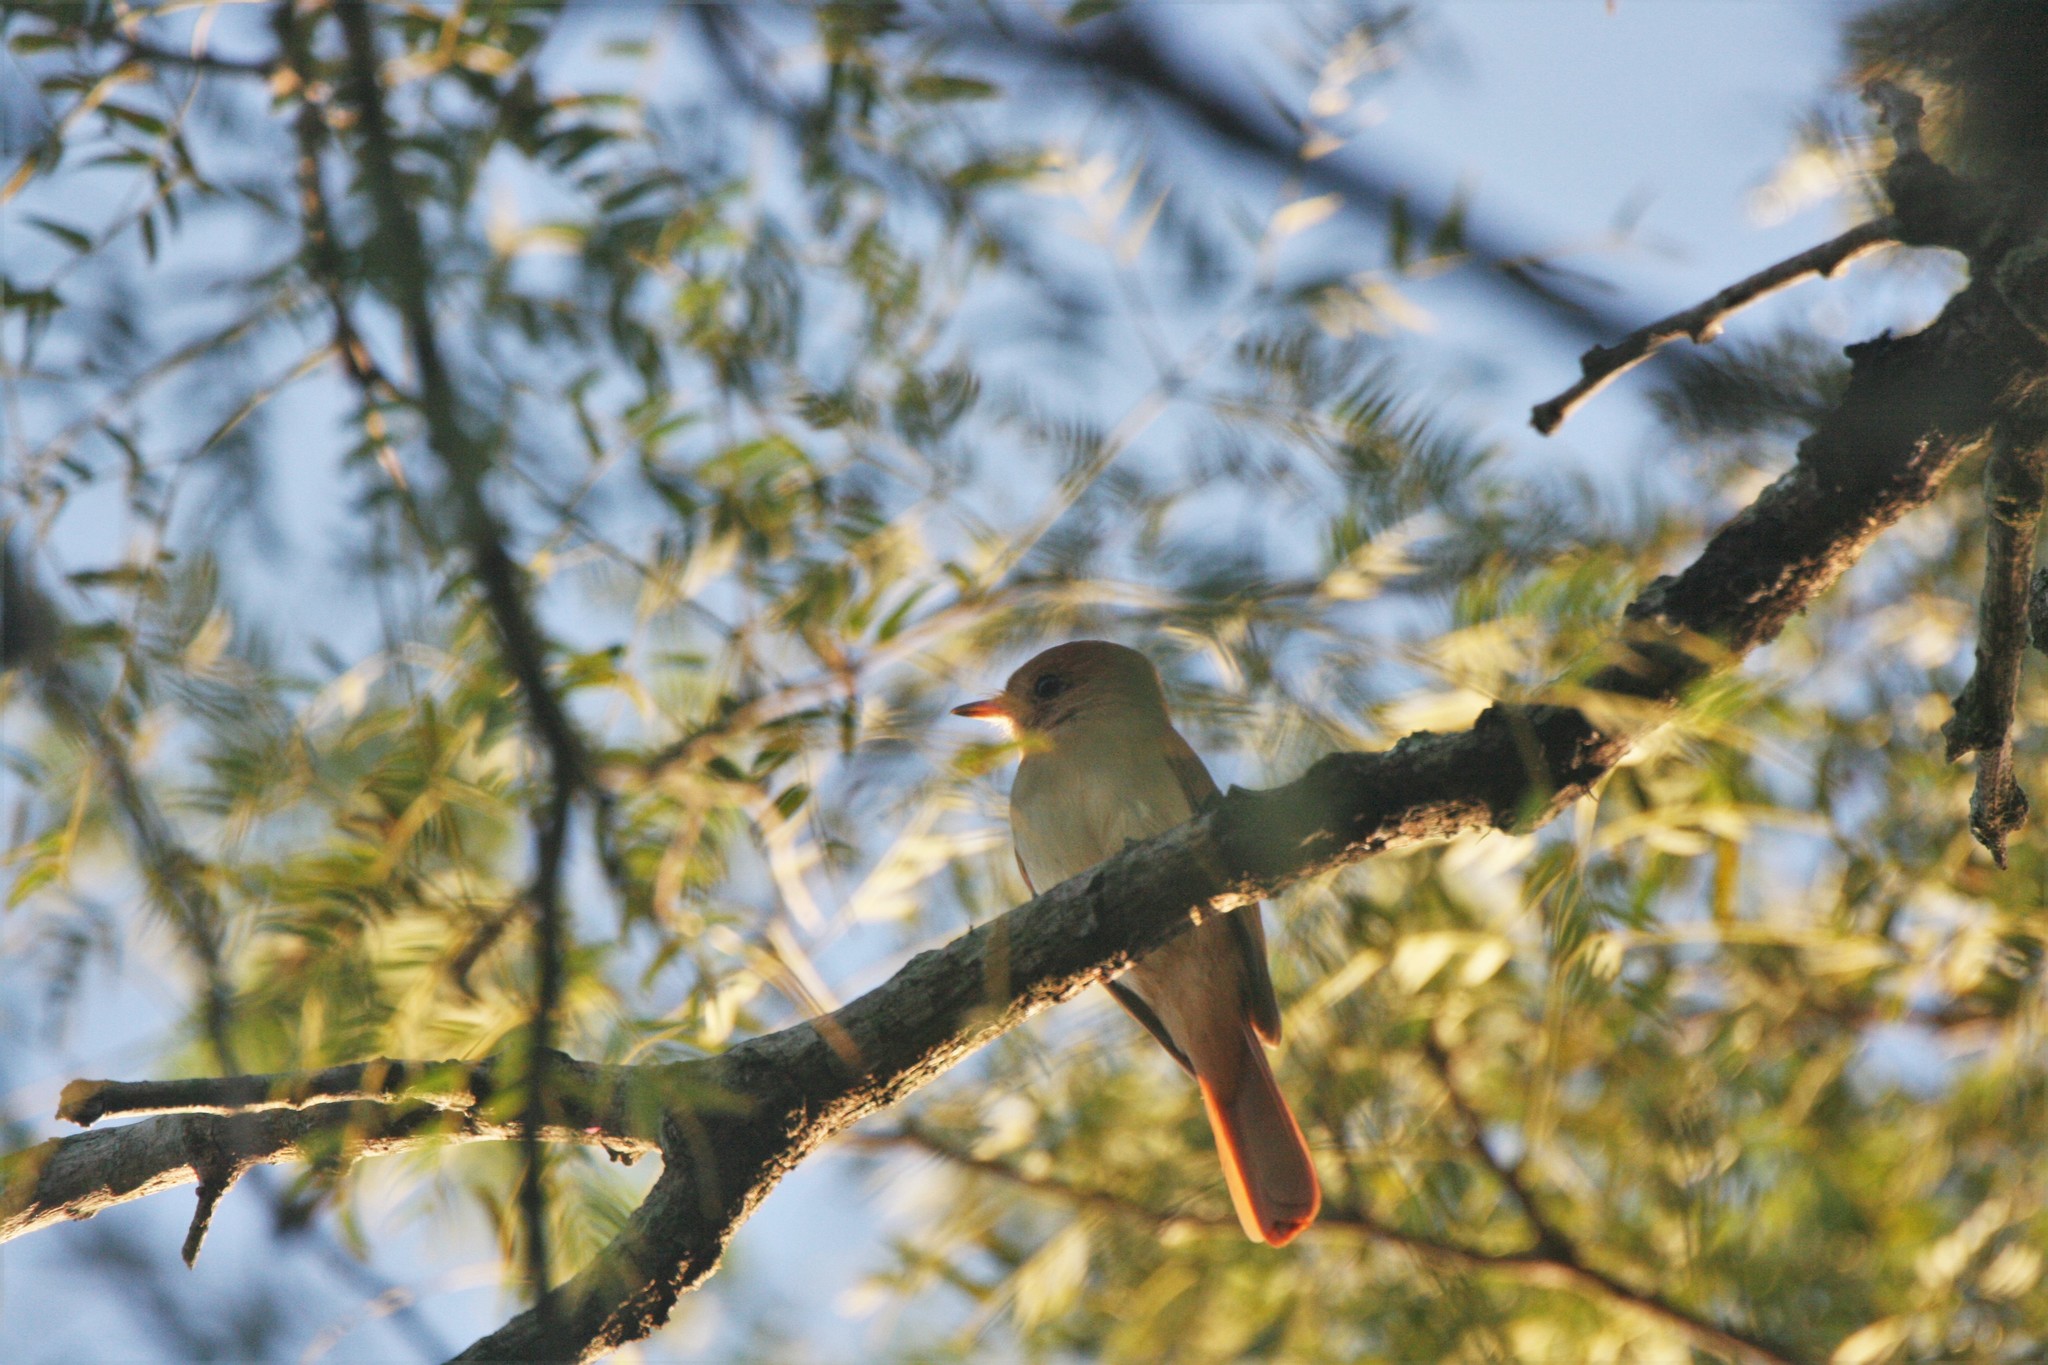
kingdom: Animalia
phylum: Chordata
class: Aves
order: Passeriformes
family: Tyrannidae
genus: Casiornis
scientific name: Casiornis rufus
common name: Rufous casiornis
